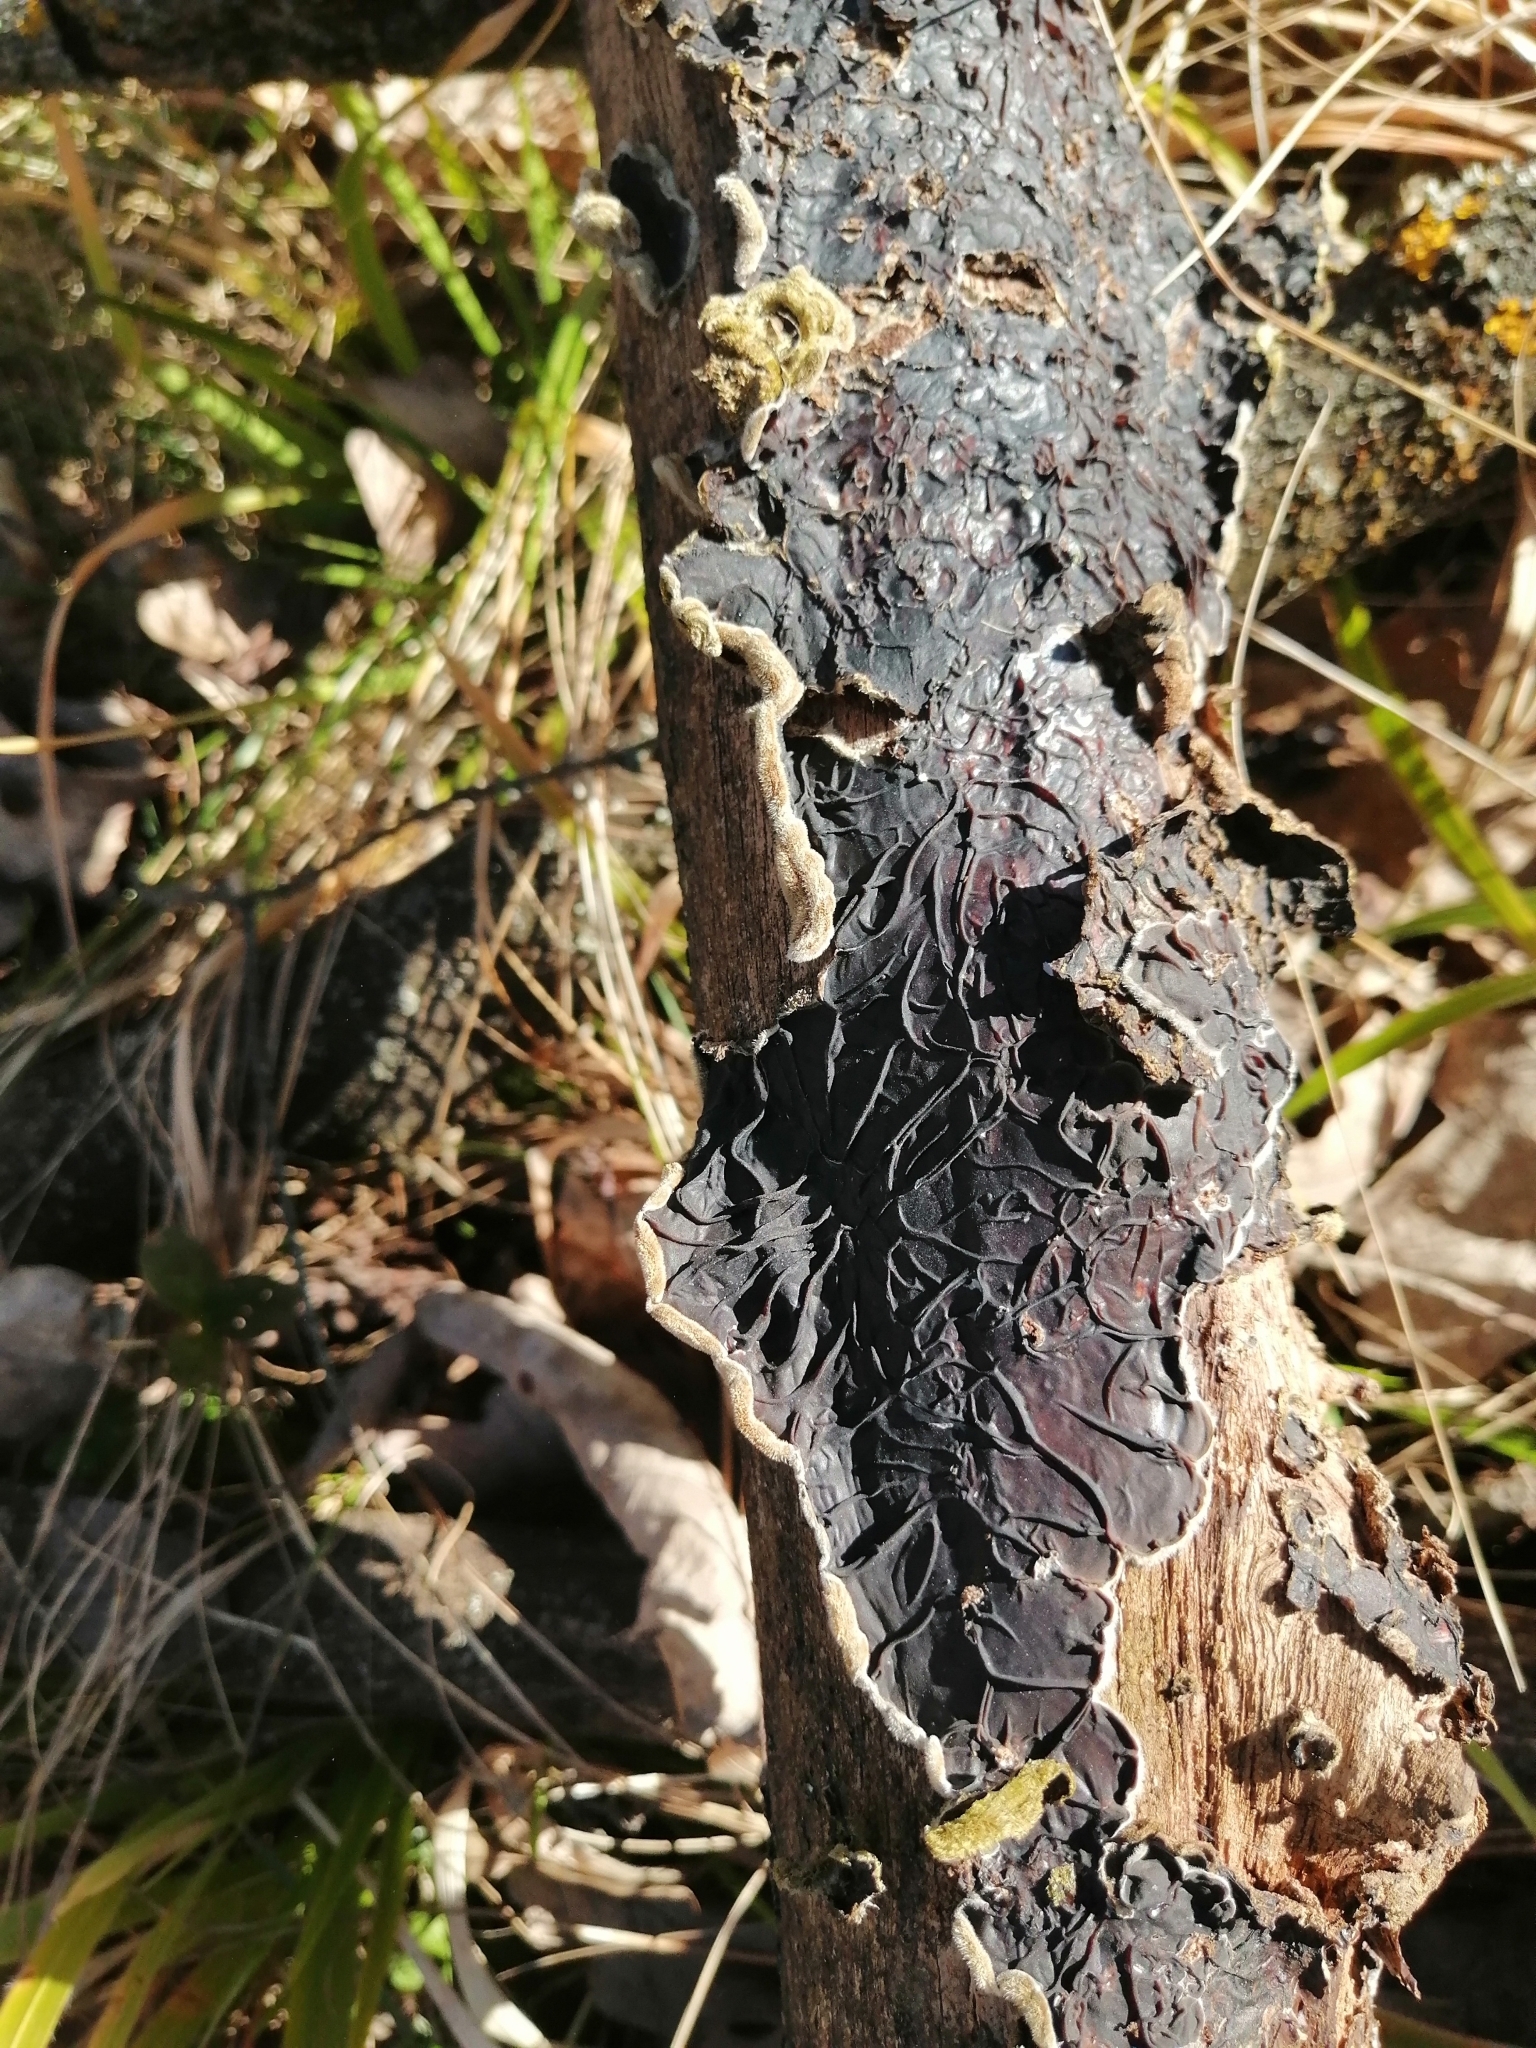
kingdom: Fungi
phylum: Basidiomycota
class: Agaricomycetes
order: Auriculariales
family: Auriculariaceae
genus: Auricularia
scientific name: Auricularia mesenterica
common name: Tripe fungus
